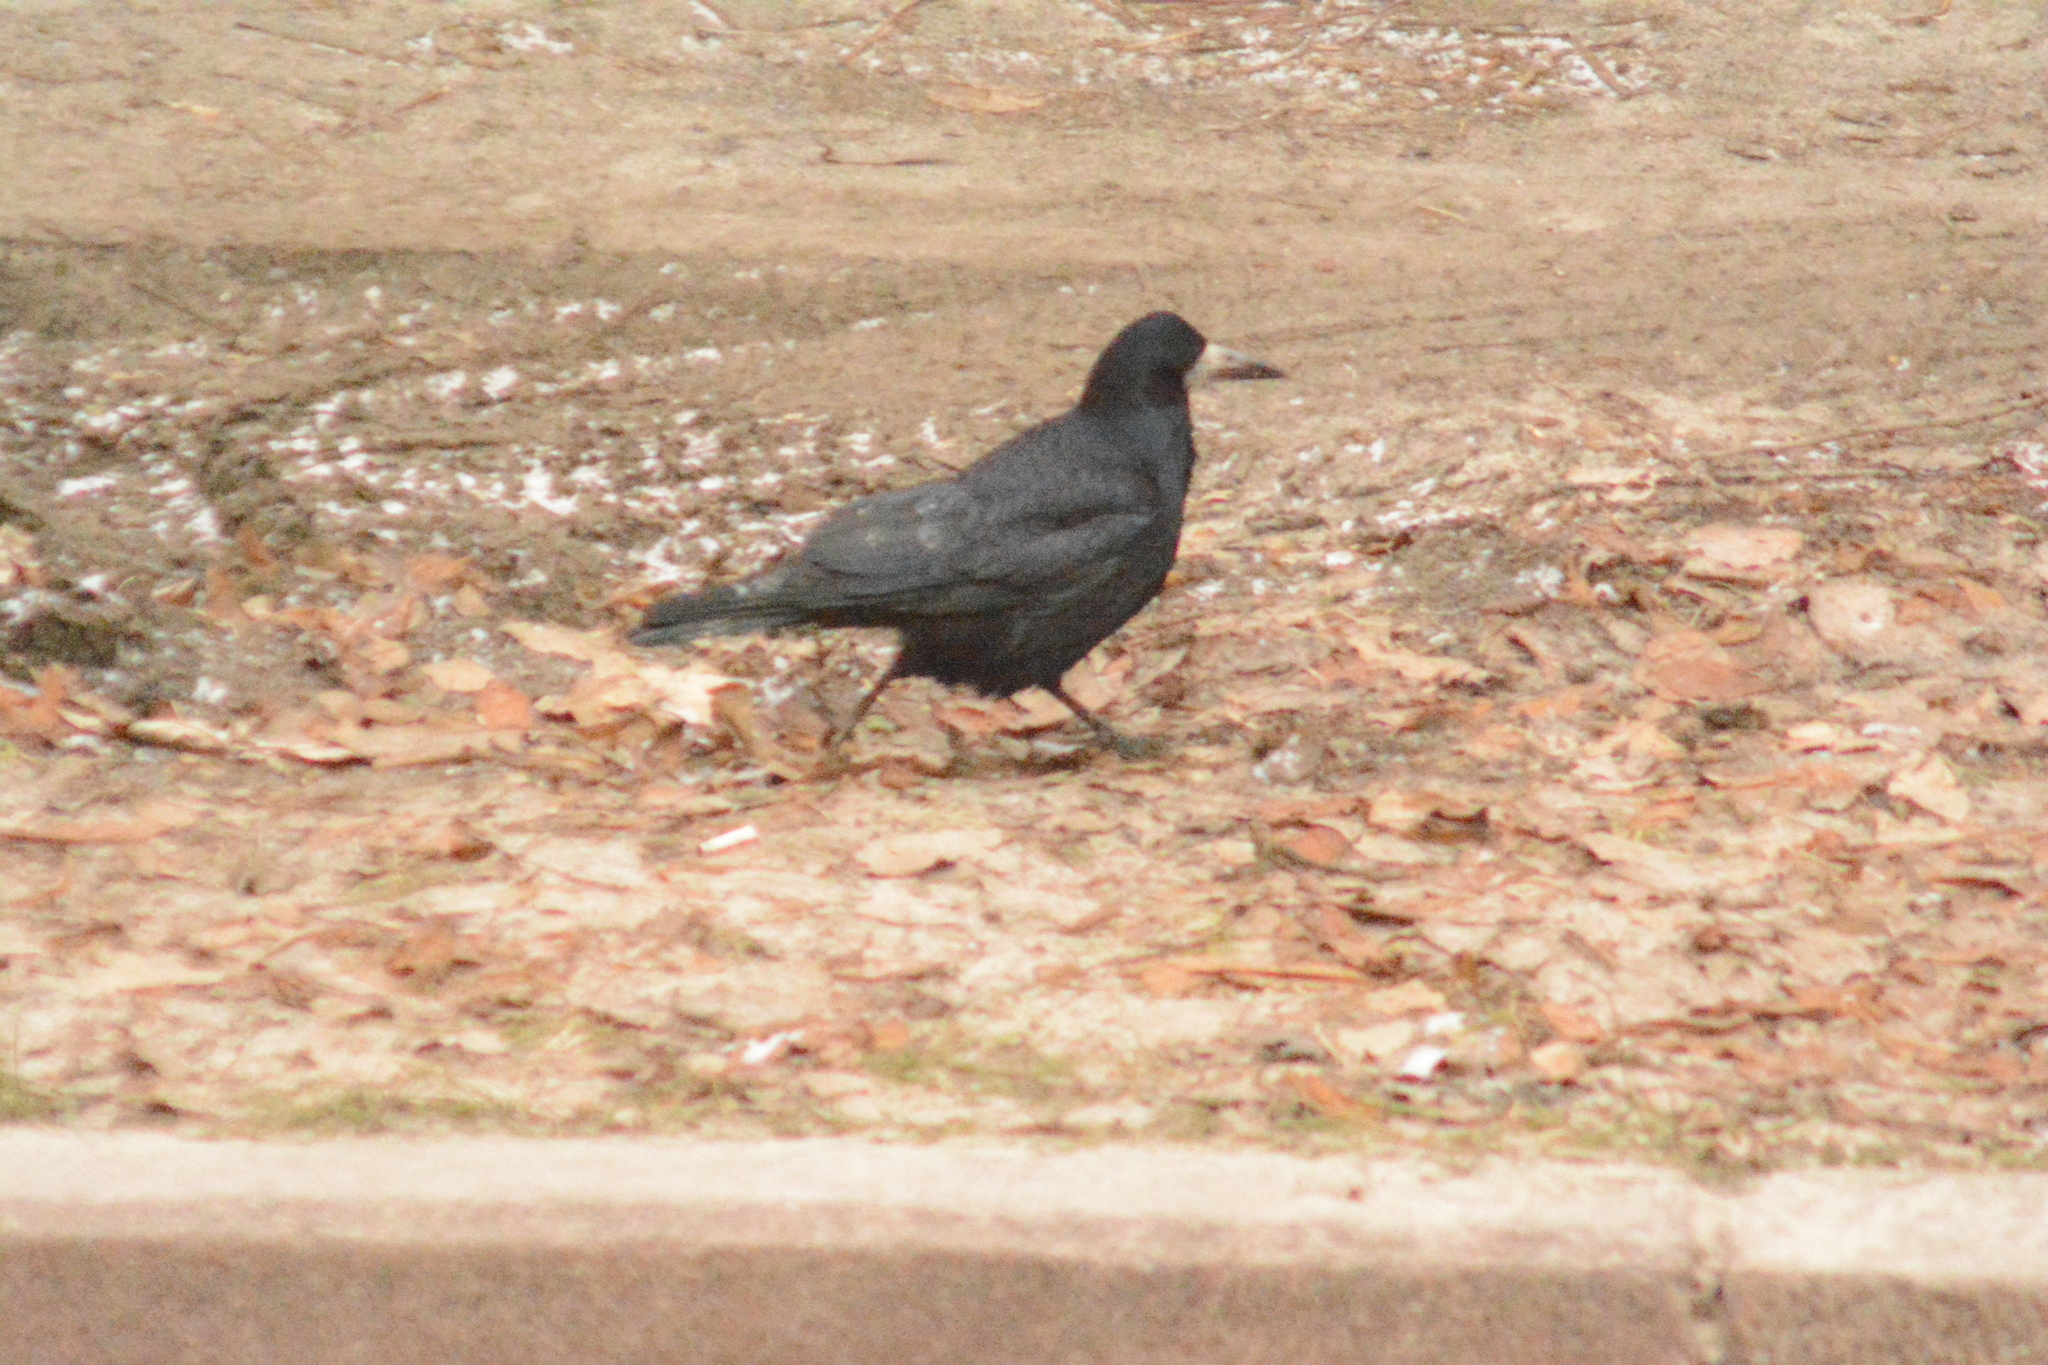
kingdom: Animalia
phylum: Chordata
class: Aves
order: Passeriformes
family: Corvidae
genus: Corvus
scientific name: Corvus frugilegus
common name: Rook
